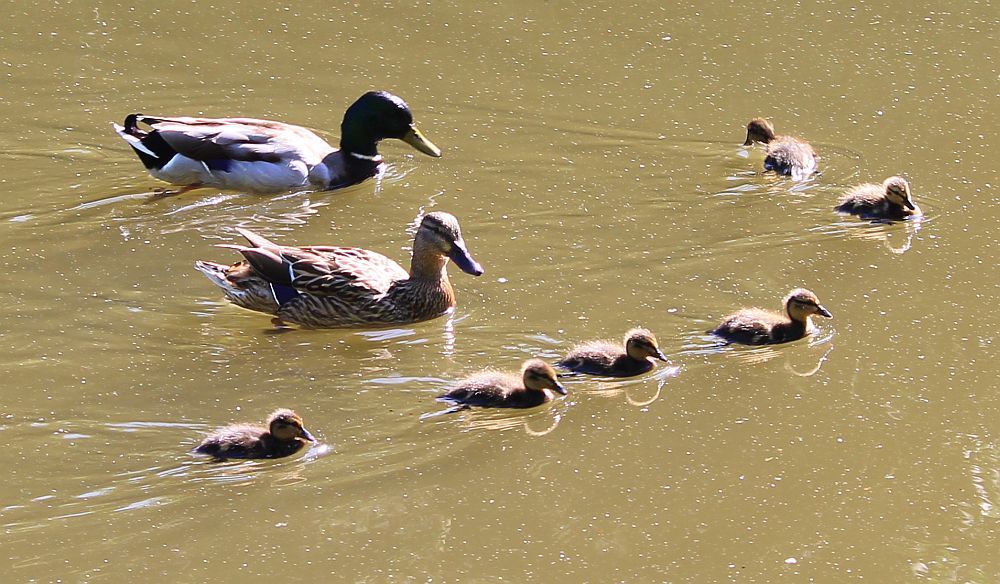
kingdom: Animalia
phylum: Chordata
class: Aves
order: Anseriformes
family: Anatidae
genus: Anas
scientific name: Anas platyrhynchos
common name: Mallard
